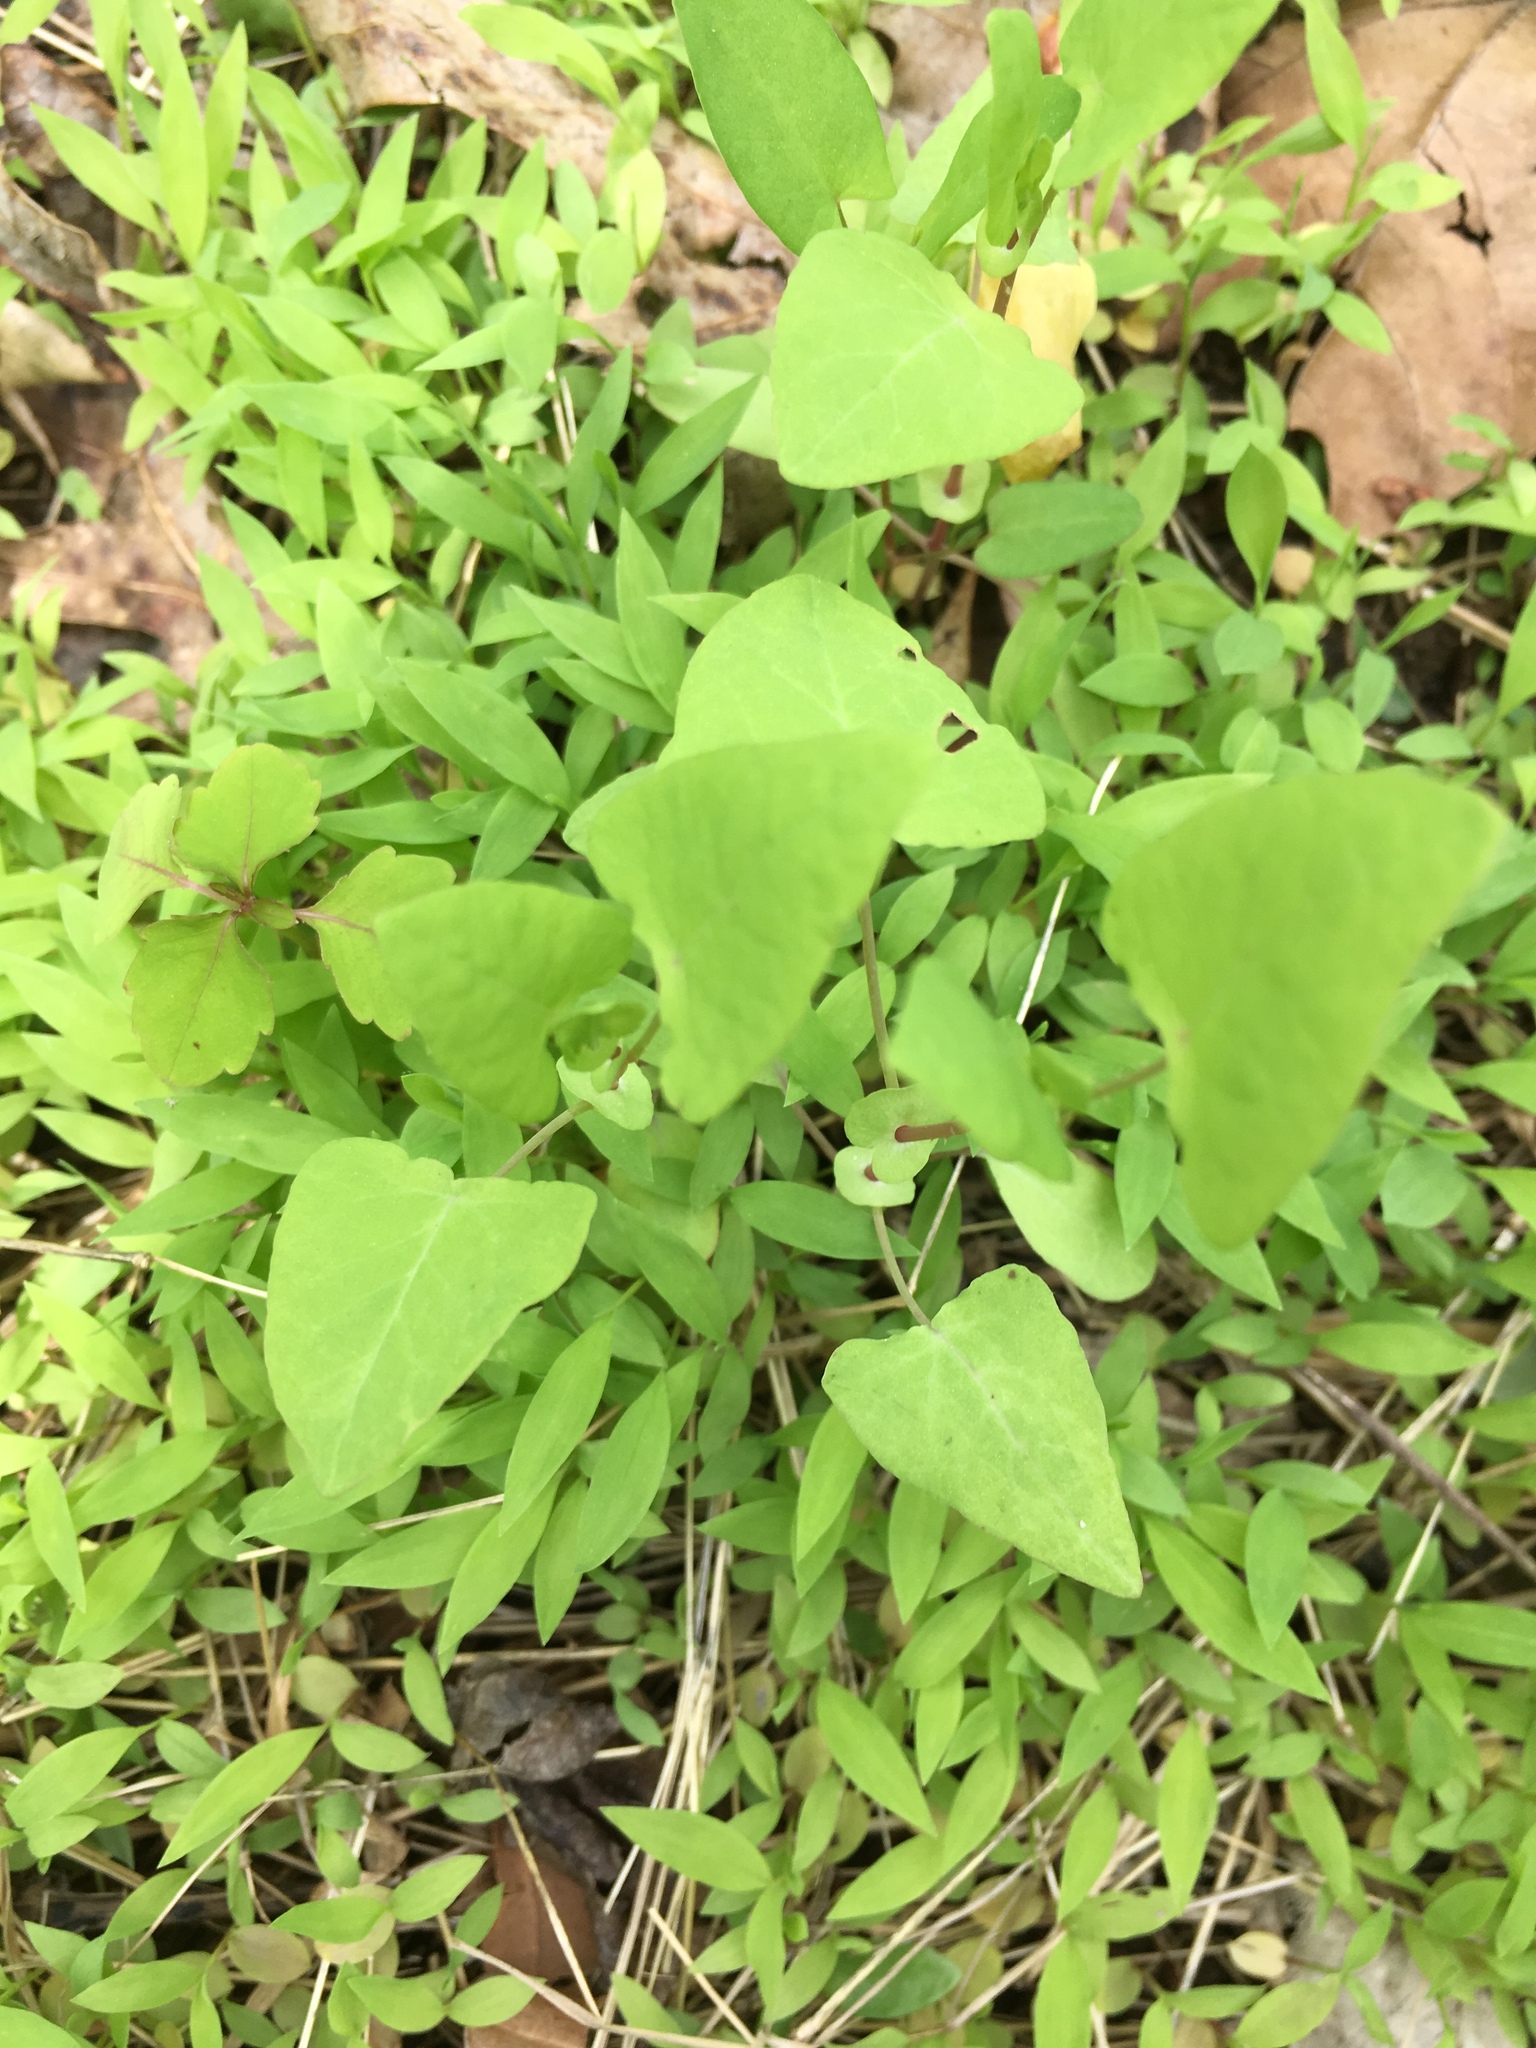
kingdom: Plantae
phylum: Tracheophyta
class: Magnoliopsida
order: Caryophyllales
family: Polygonaceae
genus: Persicaria
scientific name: Persicaria perfoliata
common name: Asiatic tearthumb
